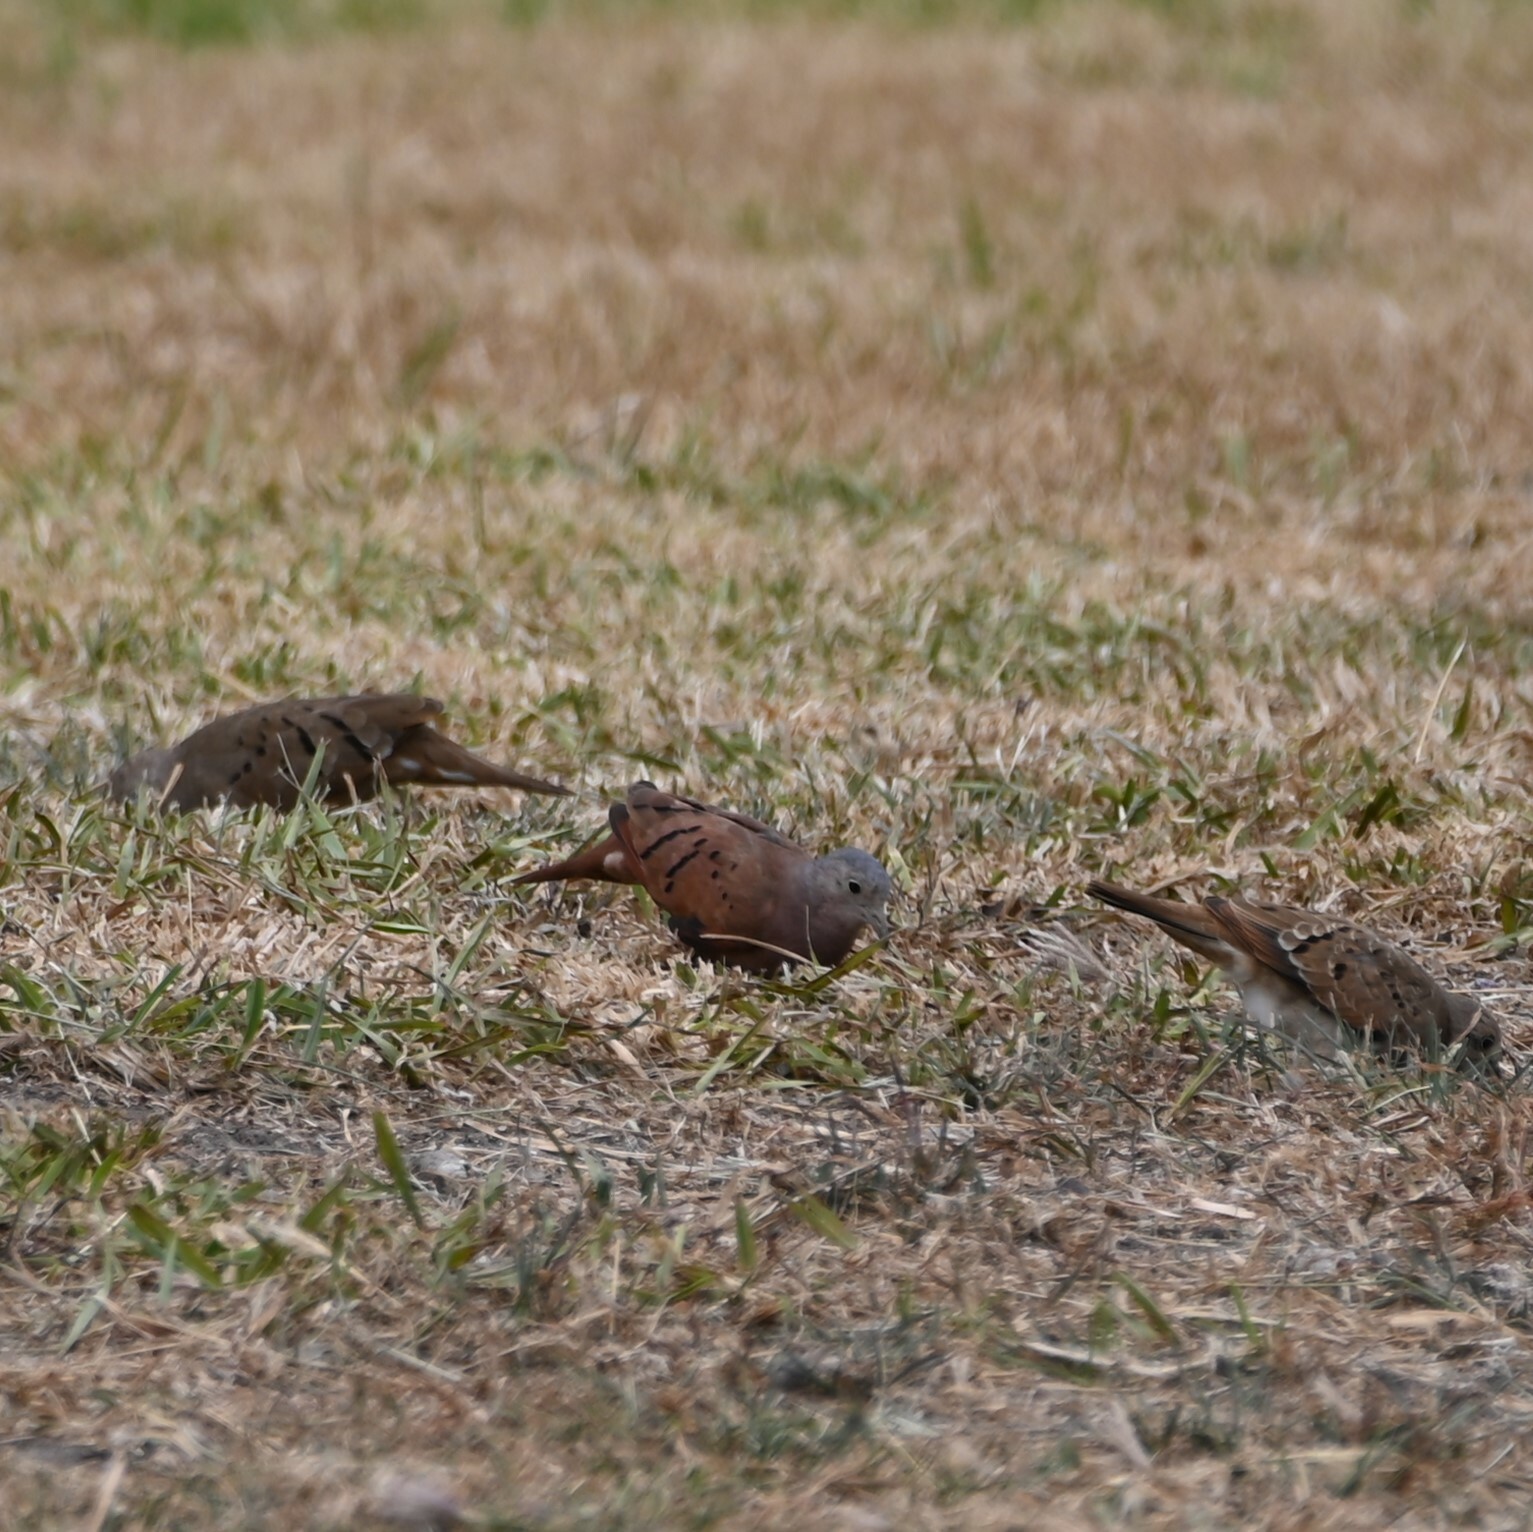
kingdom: Animalia
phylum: Chordata
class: Aves
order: Columbiformes
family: Columbidae
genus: Columbina
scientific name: Columbina talpacoti
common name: Ruddy ground dove
